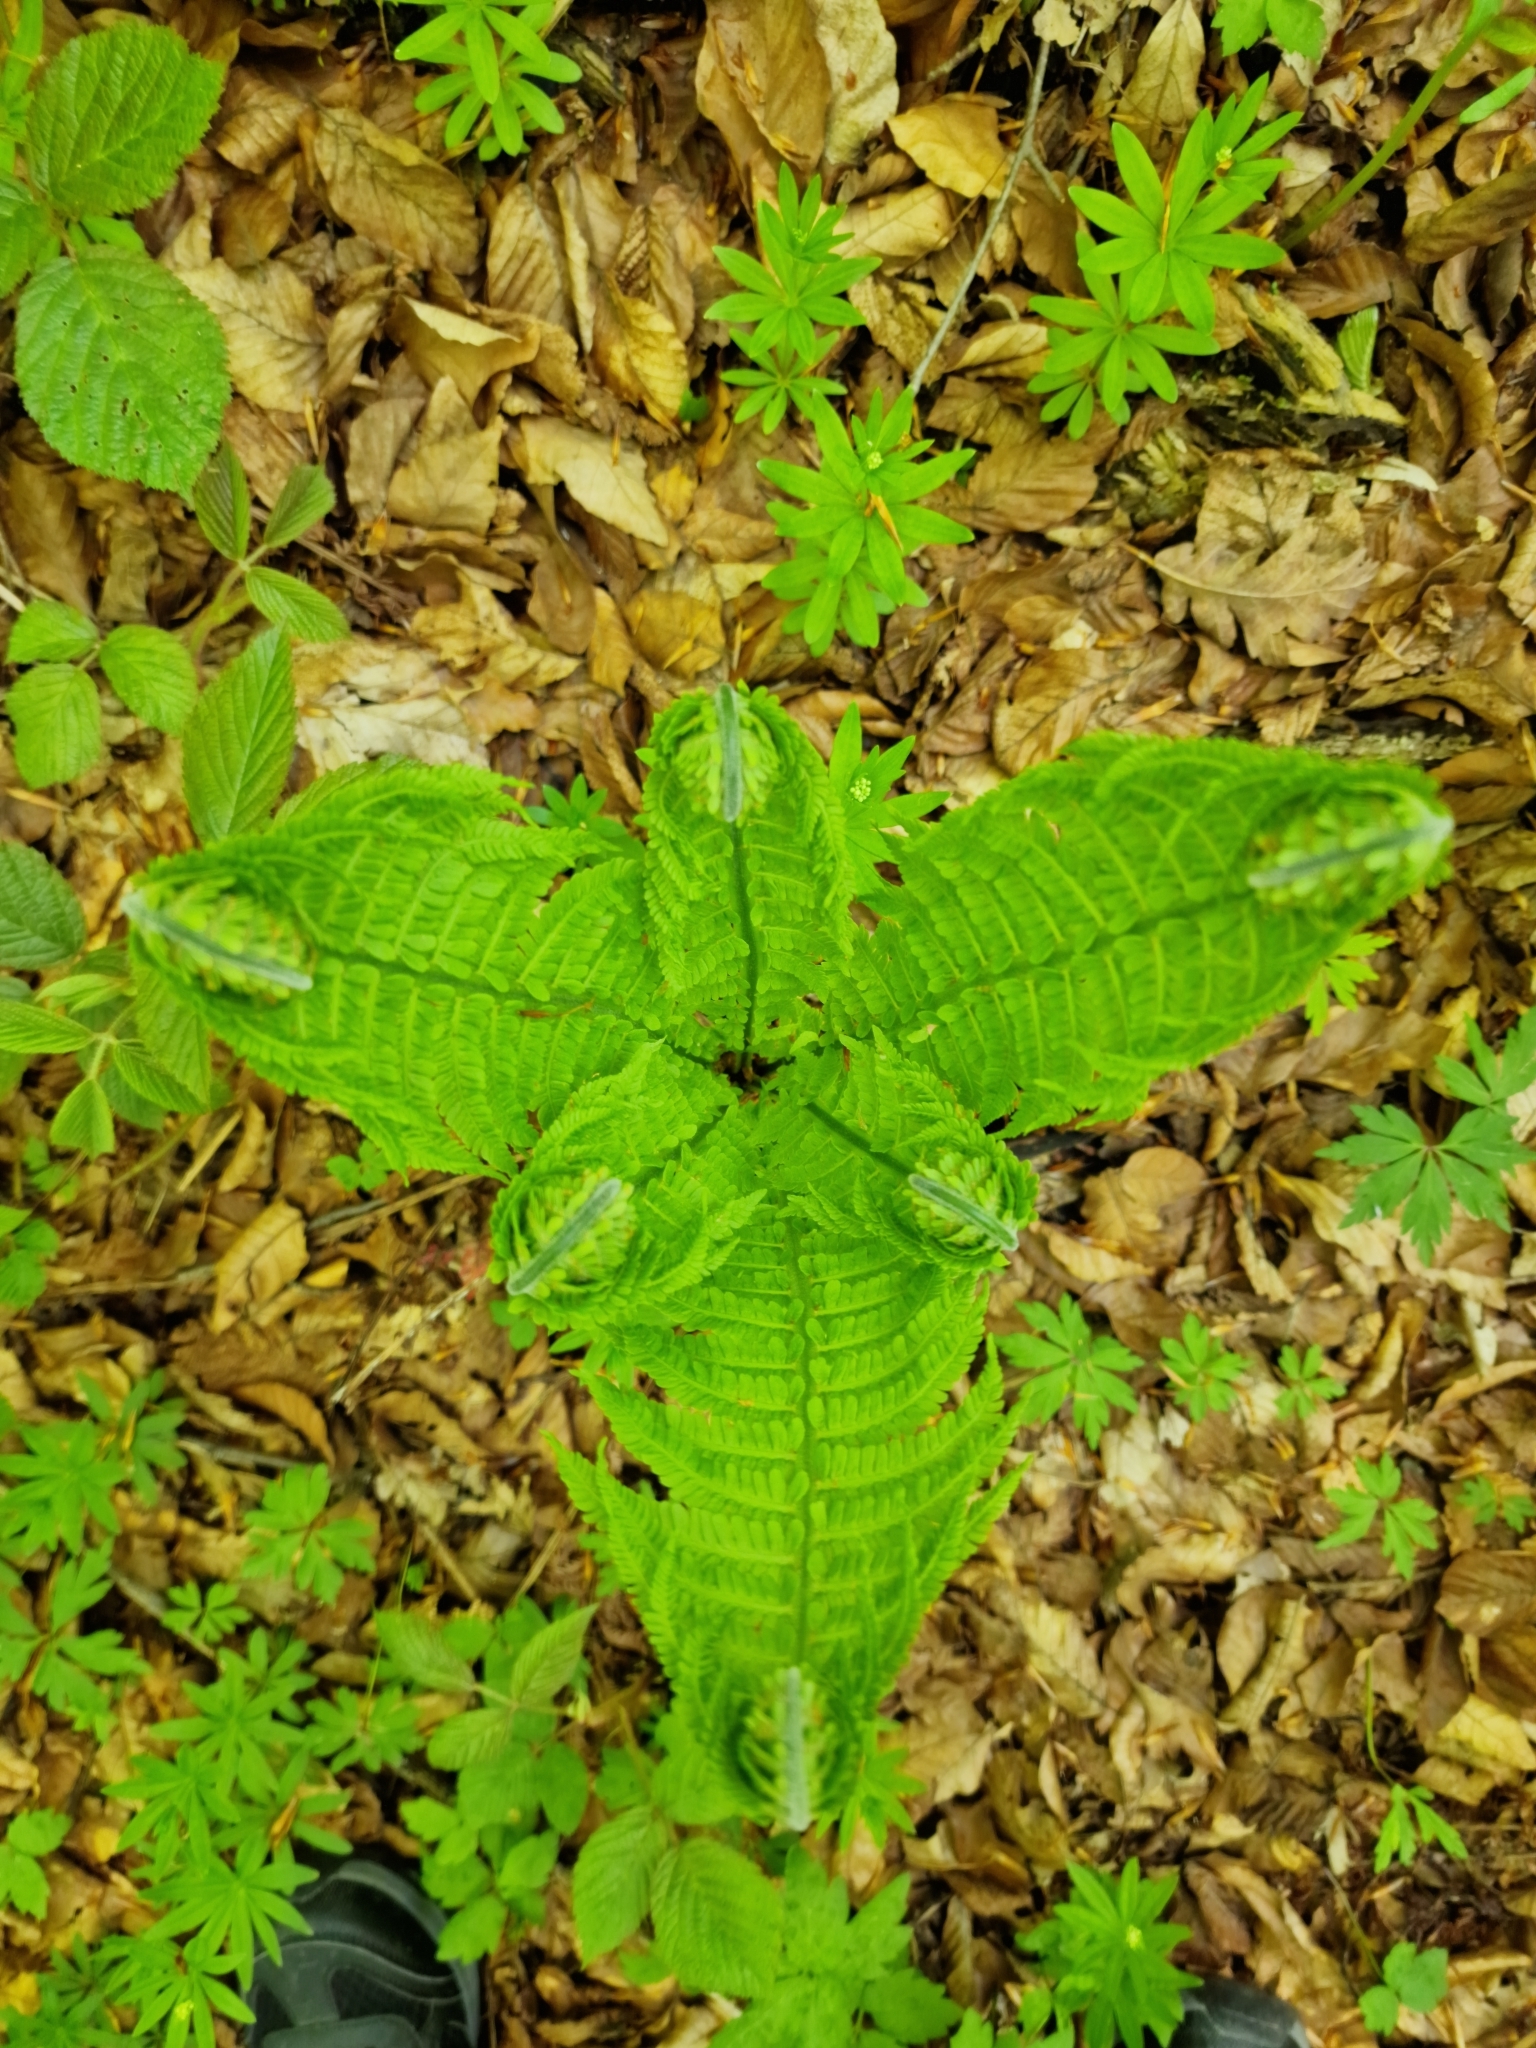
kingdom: Plantae
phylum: Tracheophyta
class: Polypodiopsida
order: Polypodiales
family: Onocleaceae
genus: Matteuccia
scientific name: Matteuccia struthiopteris
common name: Ostrich fern
